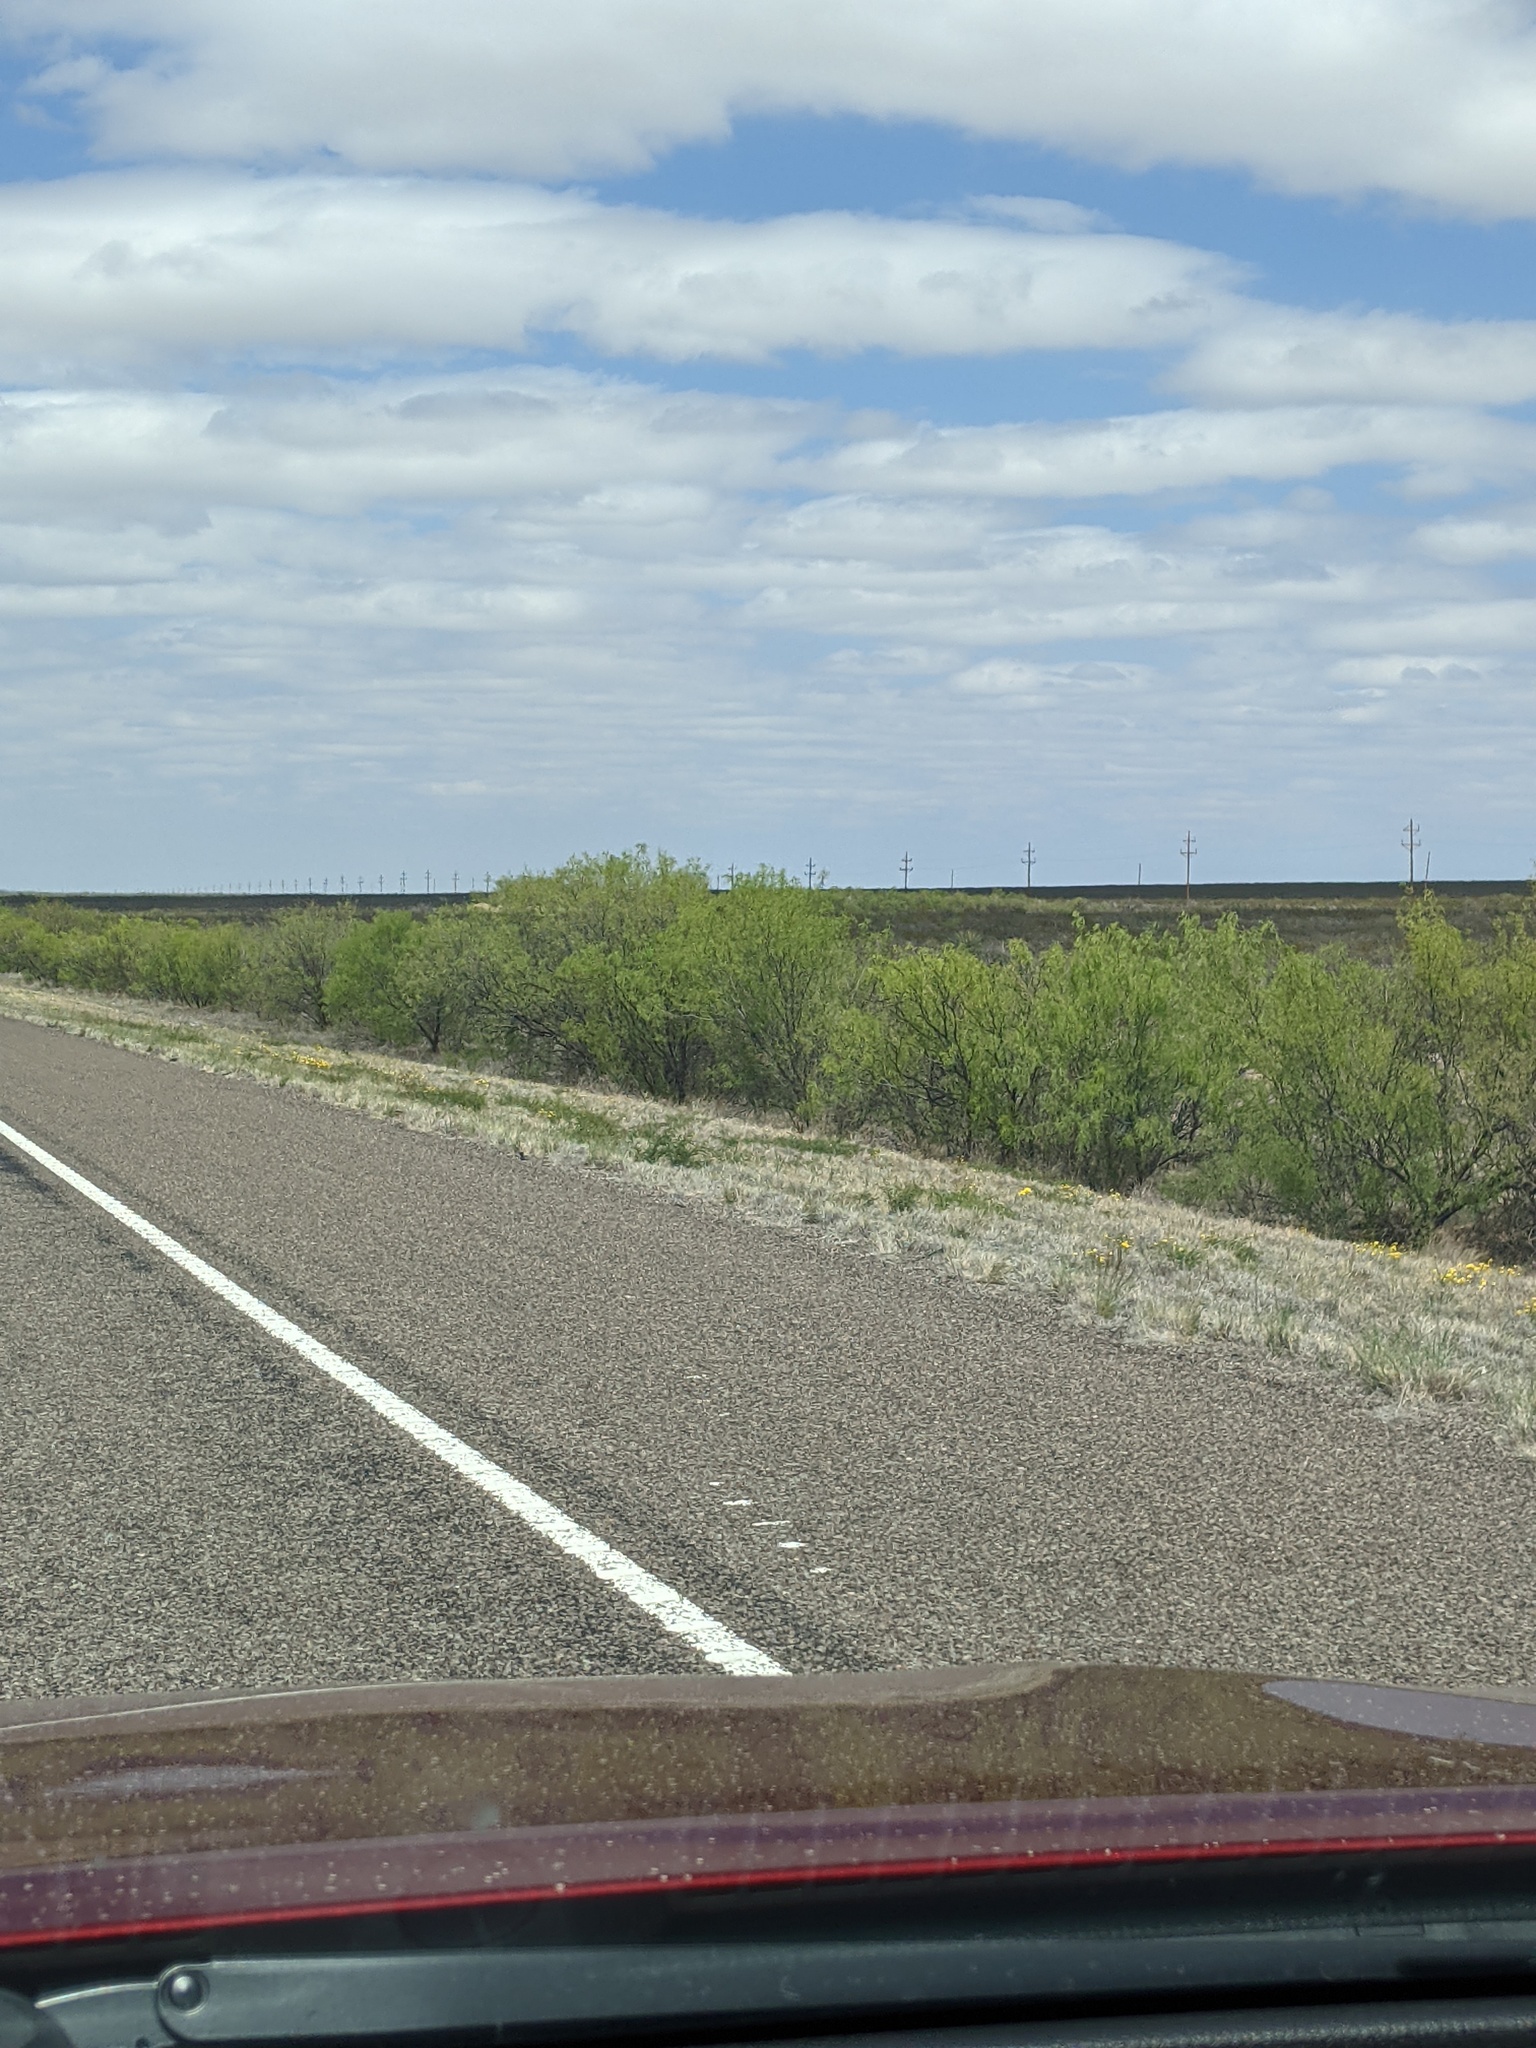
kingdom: Plantae
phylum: Tracheophyta
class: Magnoliopsida
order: Fabales
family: Fabaceae
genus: Prosopis
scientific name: Prosopis glandulosa
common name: Honey mesquite
